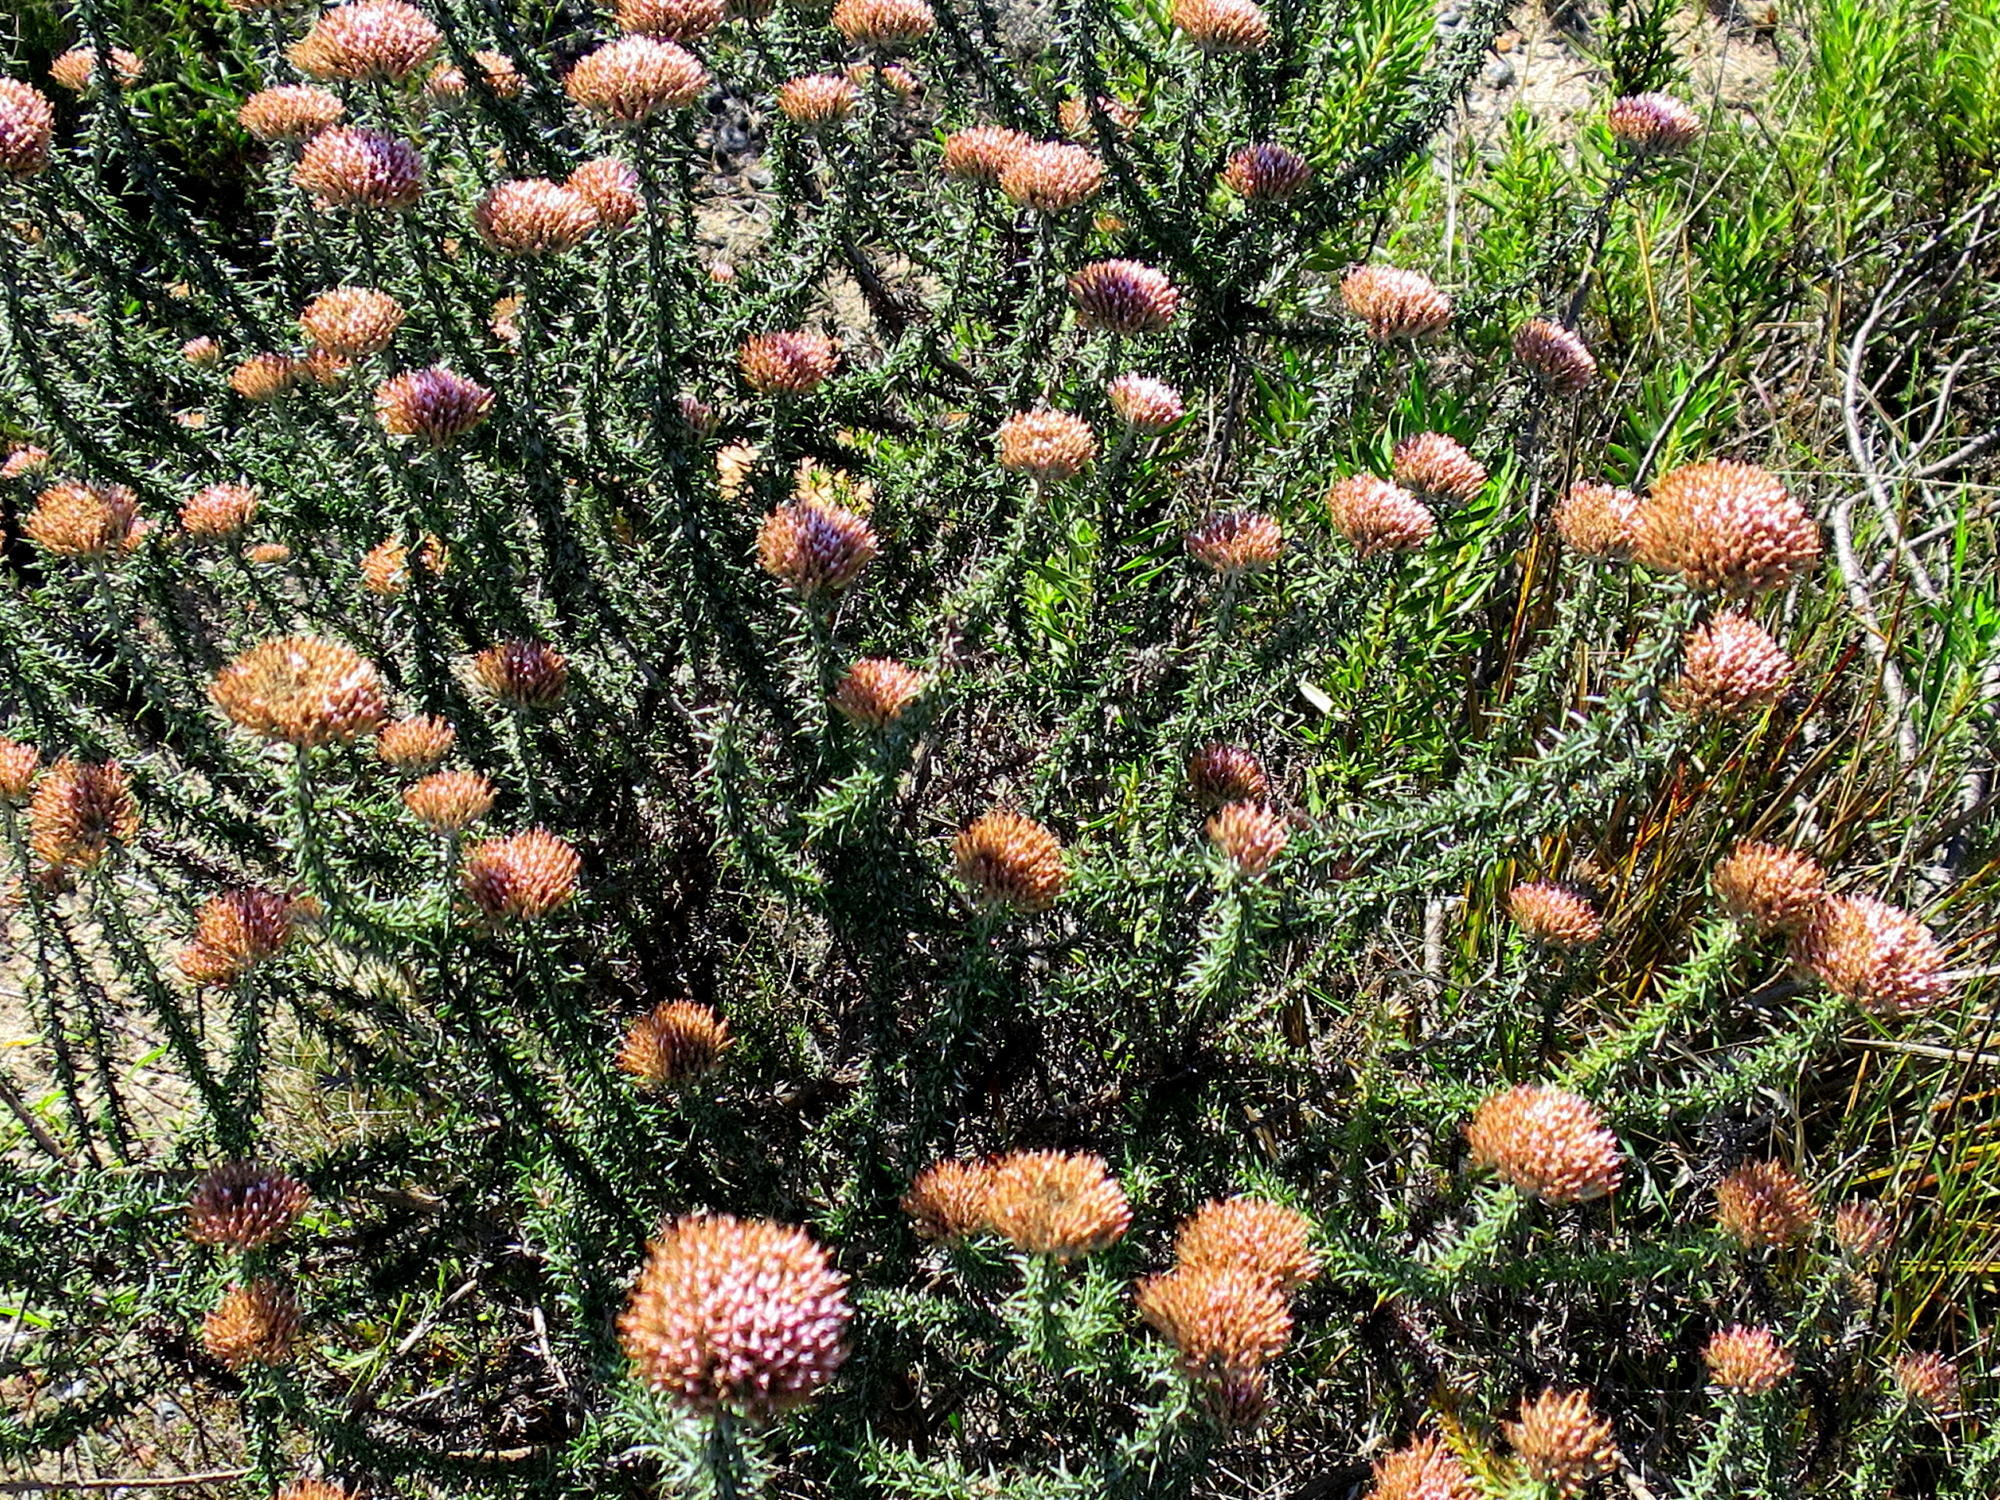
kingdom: Plantae
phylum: Tracheophyta
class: Magnoliopsida
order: Asterales
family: Asteraceae
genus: Metalasia
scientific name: Metalasia massonii
